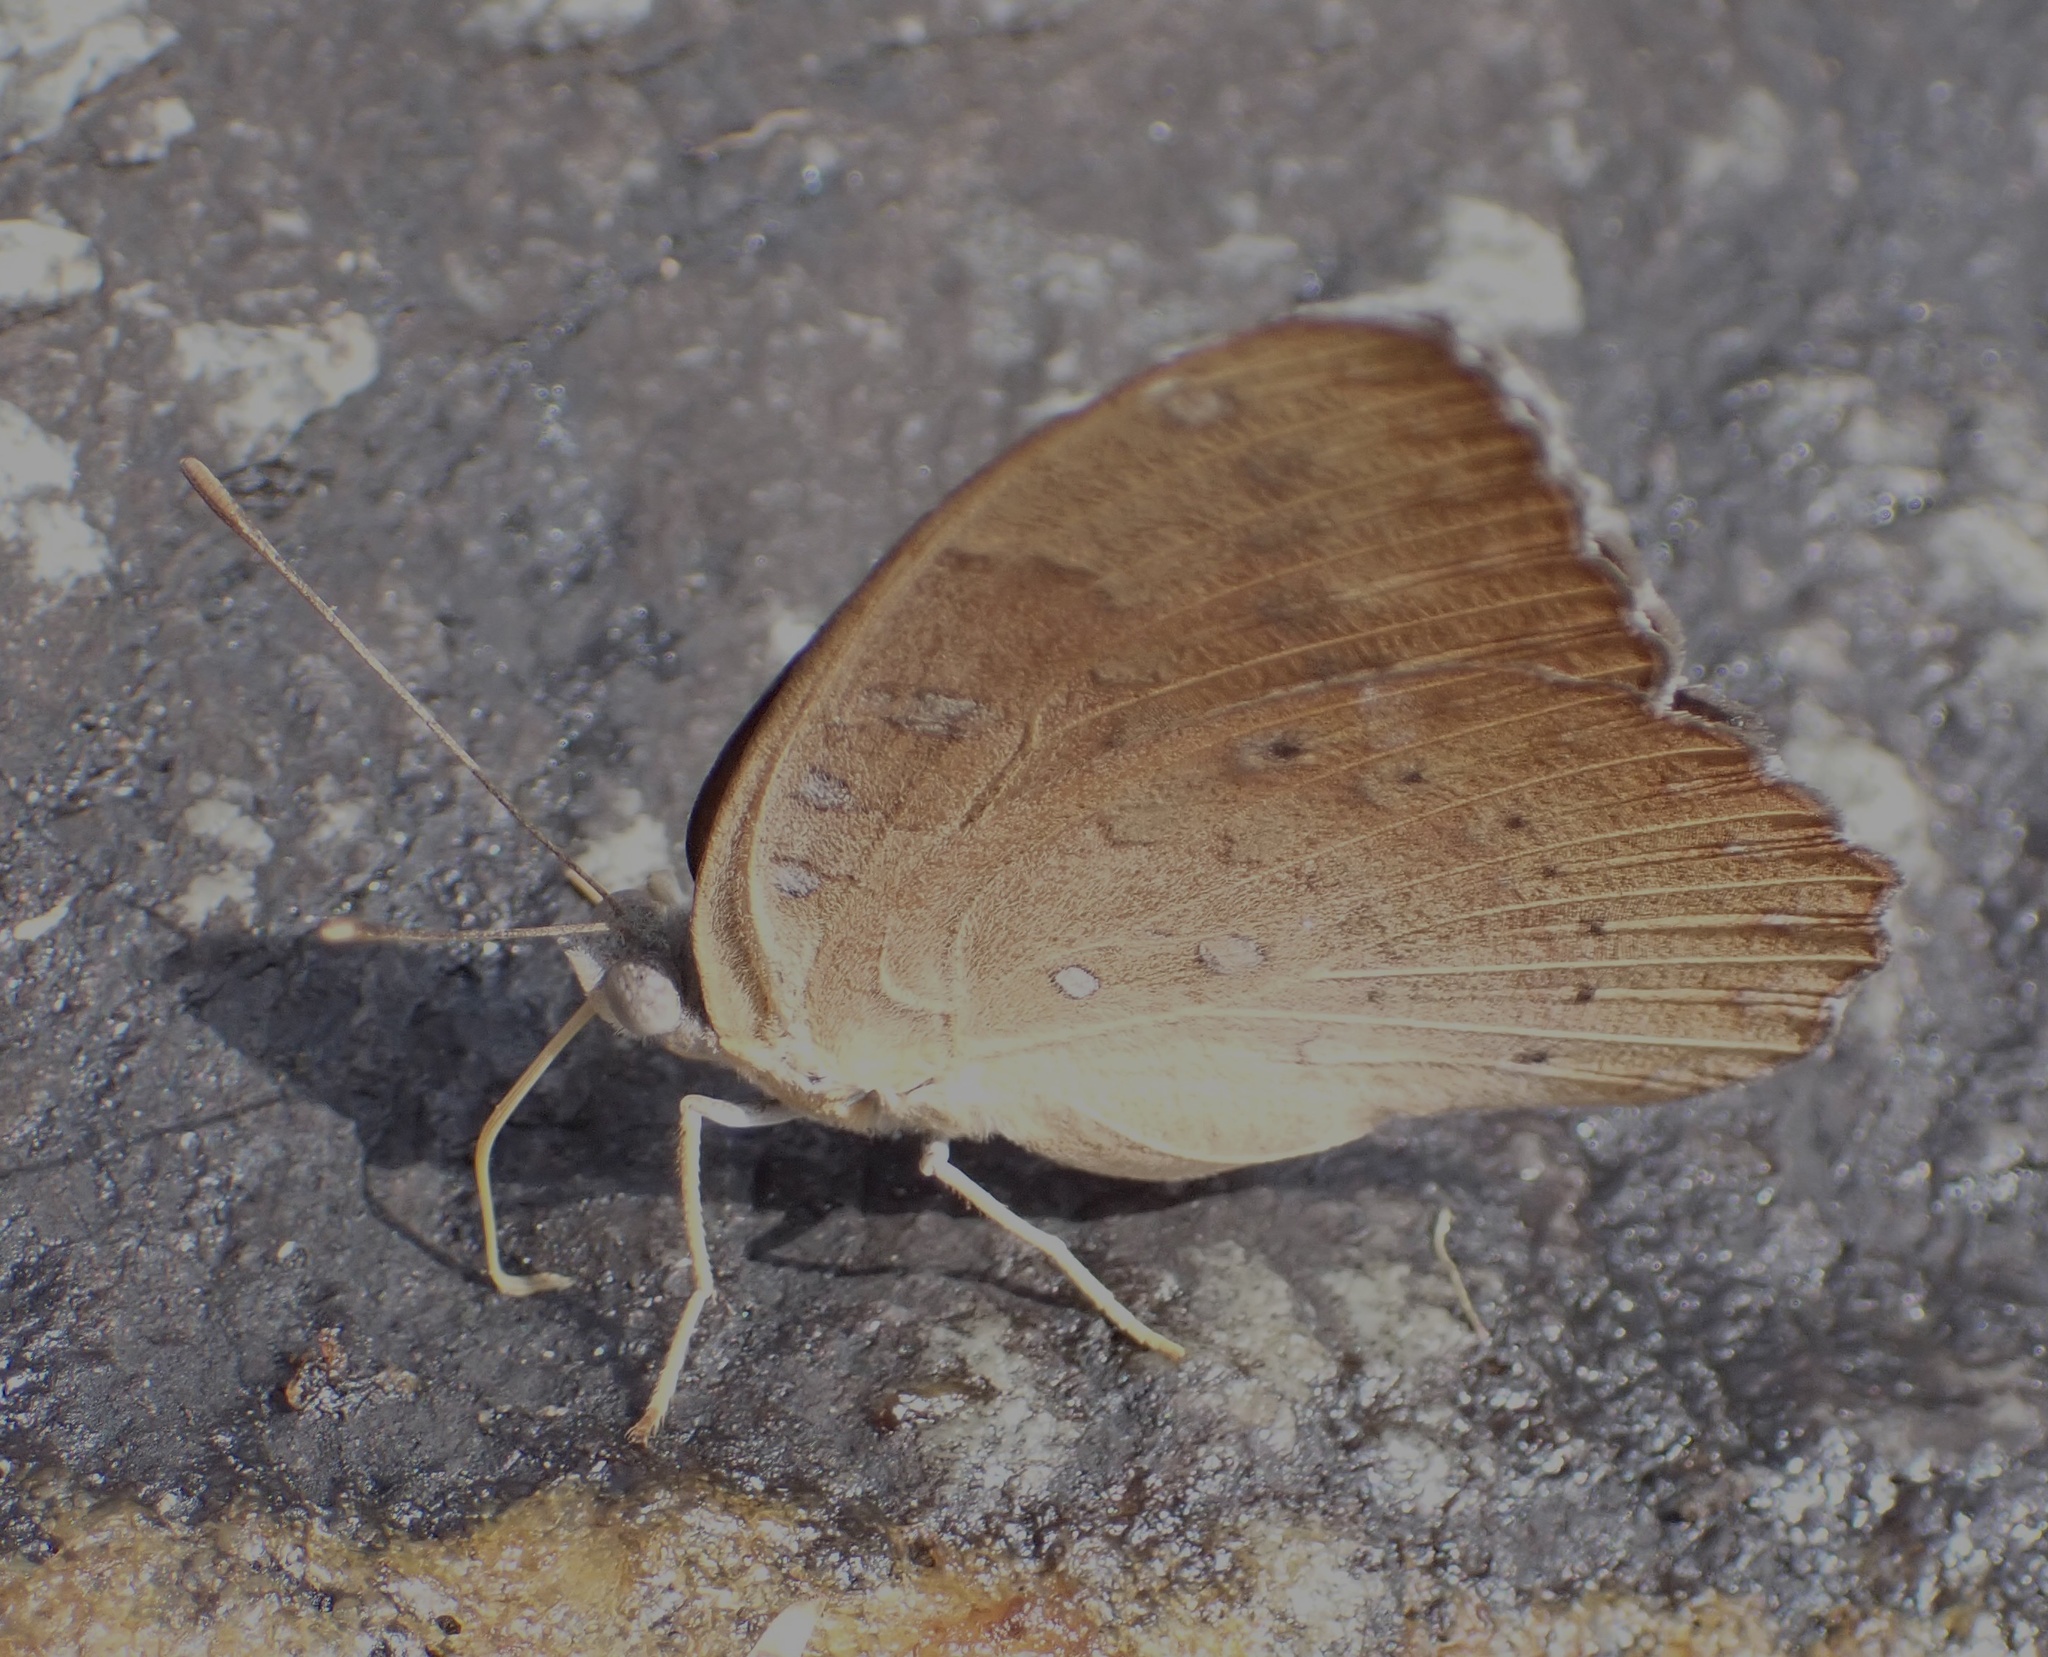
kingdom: Animalia
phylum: Arthropoda
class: Insecta
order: Lepidoptera
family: Nymphalidae
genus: Hamanumida
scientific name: Hamanumida daedalus
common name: Guinea-fowl butterfly
